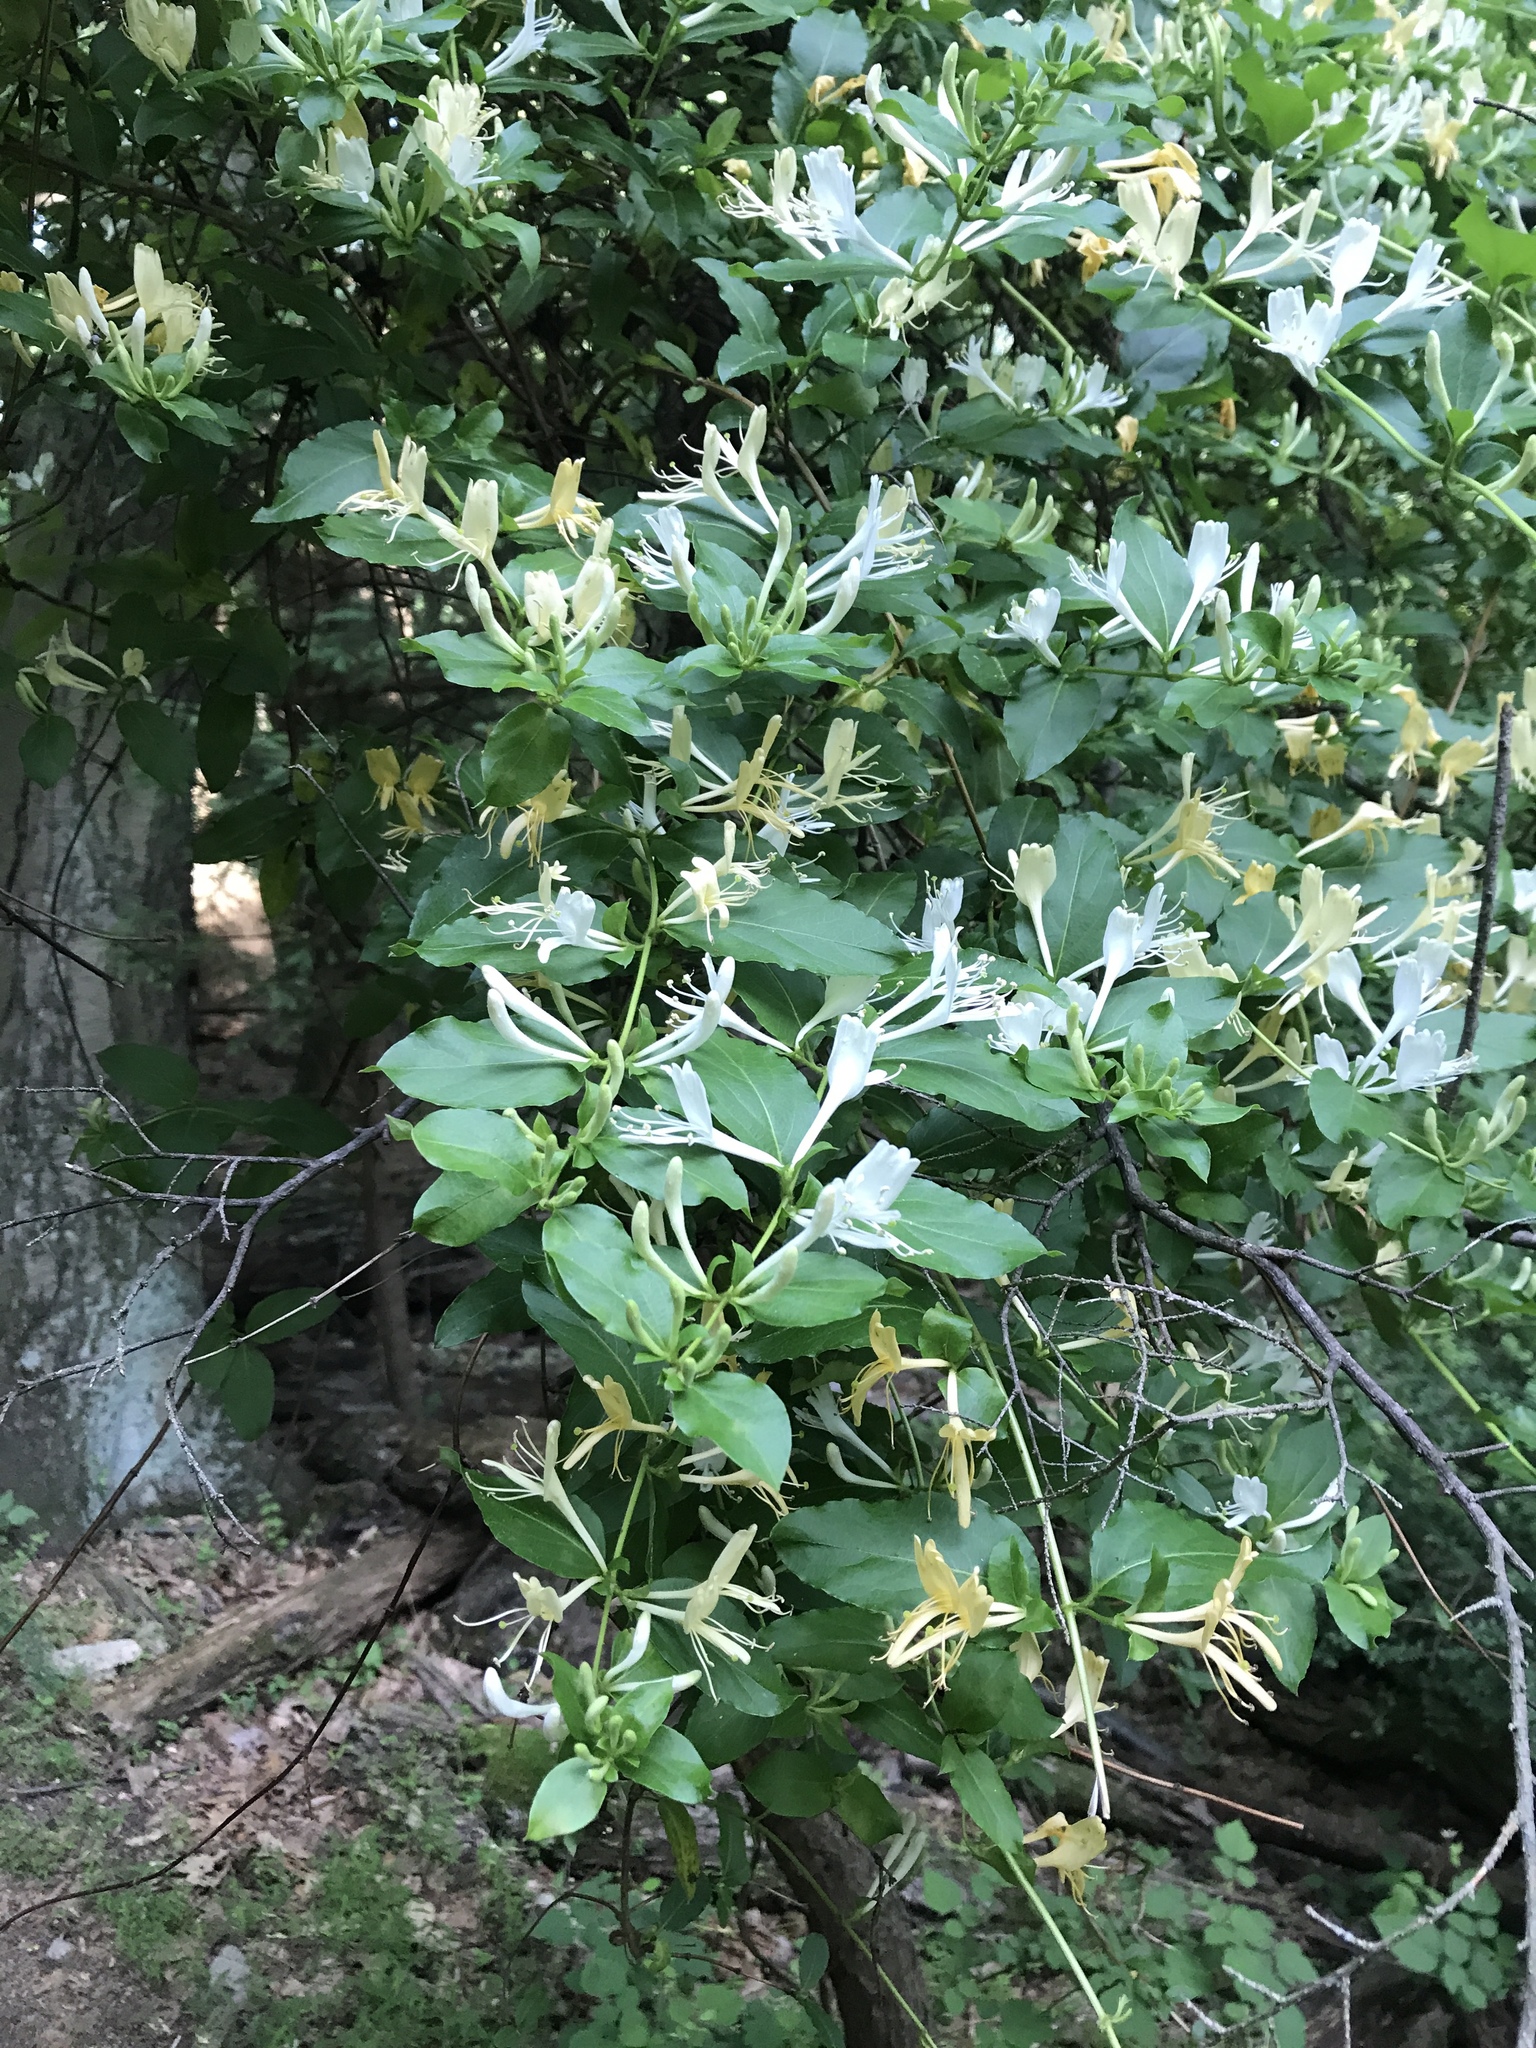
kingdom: Plantae
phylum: Tracheophyta
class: Magnoliopsida
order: Dipsacales
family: Caprifoliaceae
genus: Lonicera
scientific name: Lonicera japonica
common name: Japanese honeysuckle
